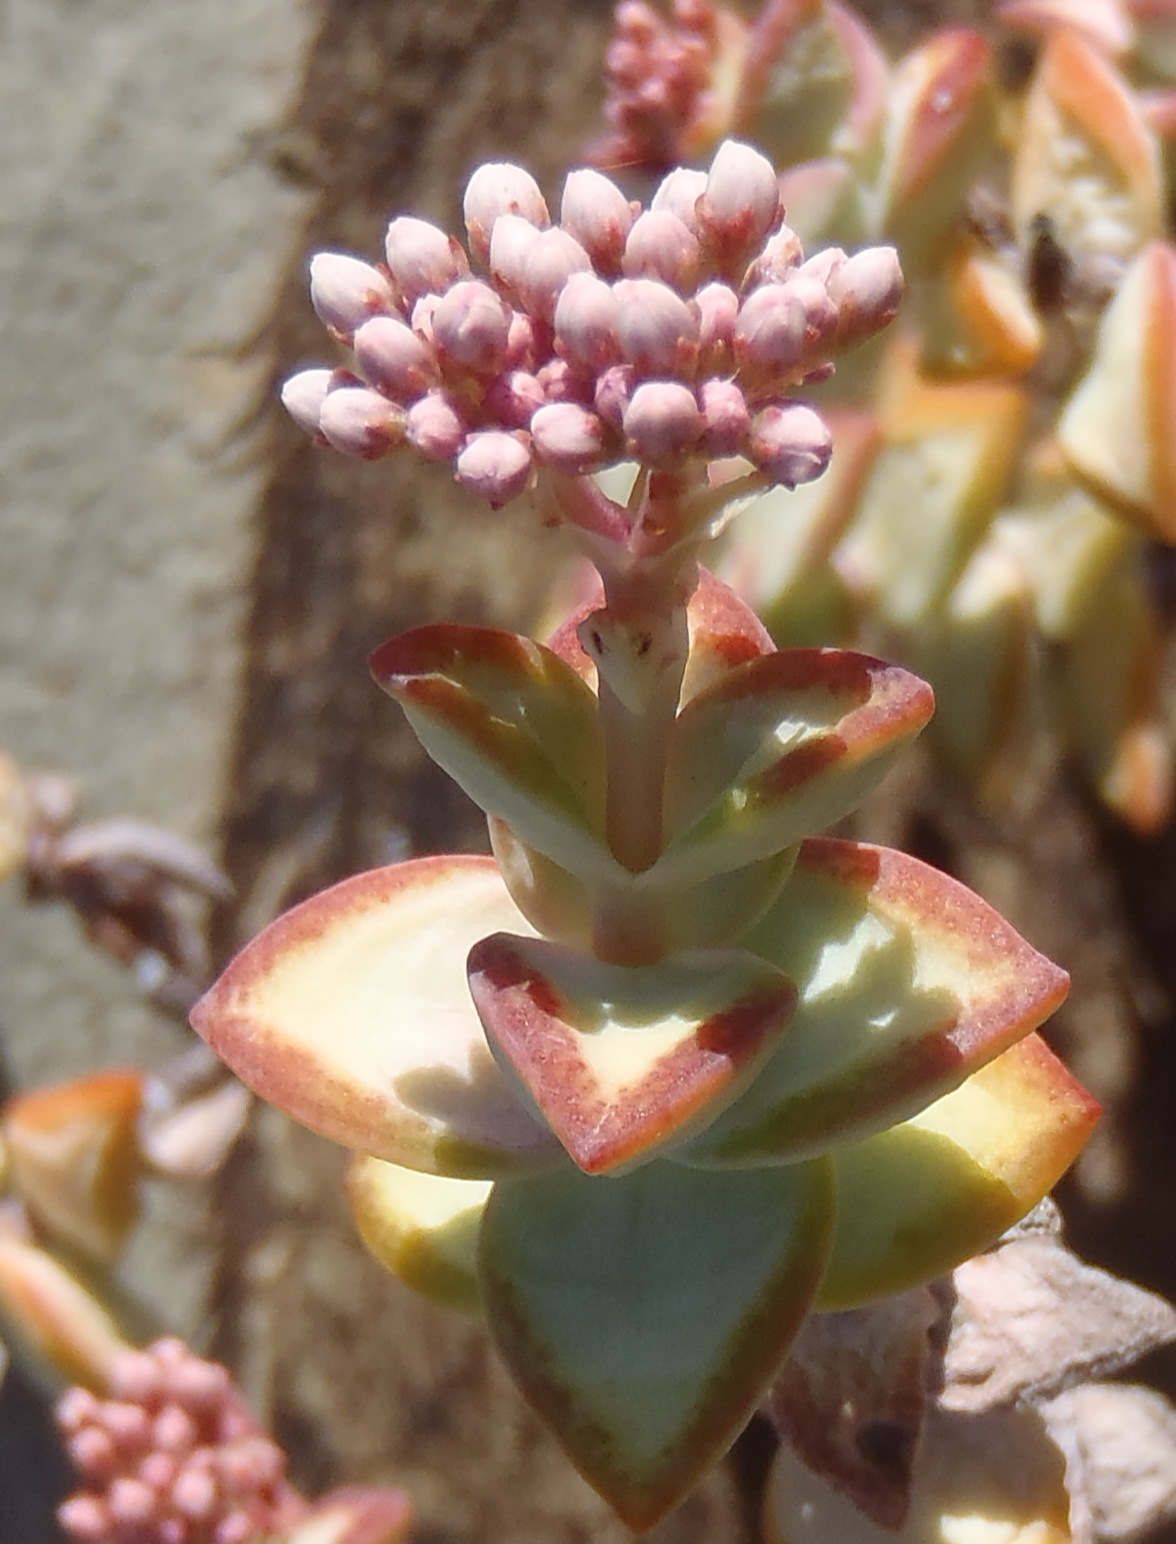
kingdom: Plantae
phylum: Tracheophyta
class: Magnoliopsida
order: Saxifragales
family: Crassulaceae
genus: Crassula
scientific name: Crassula rupestris
